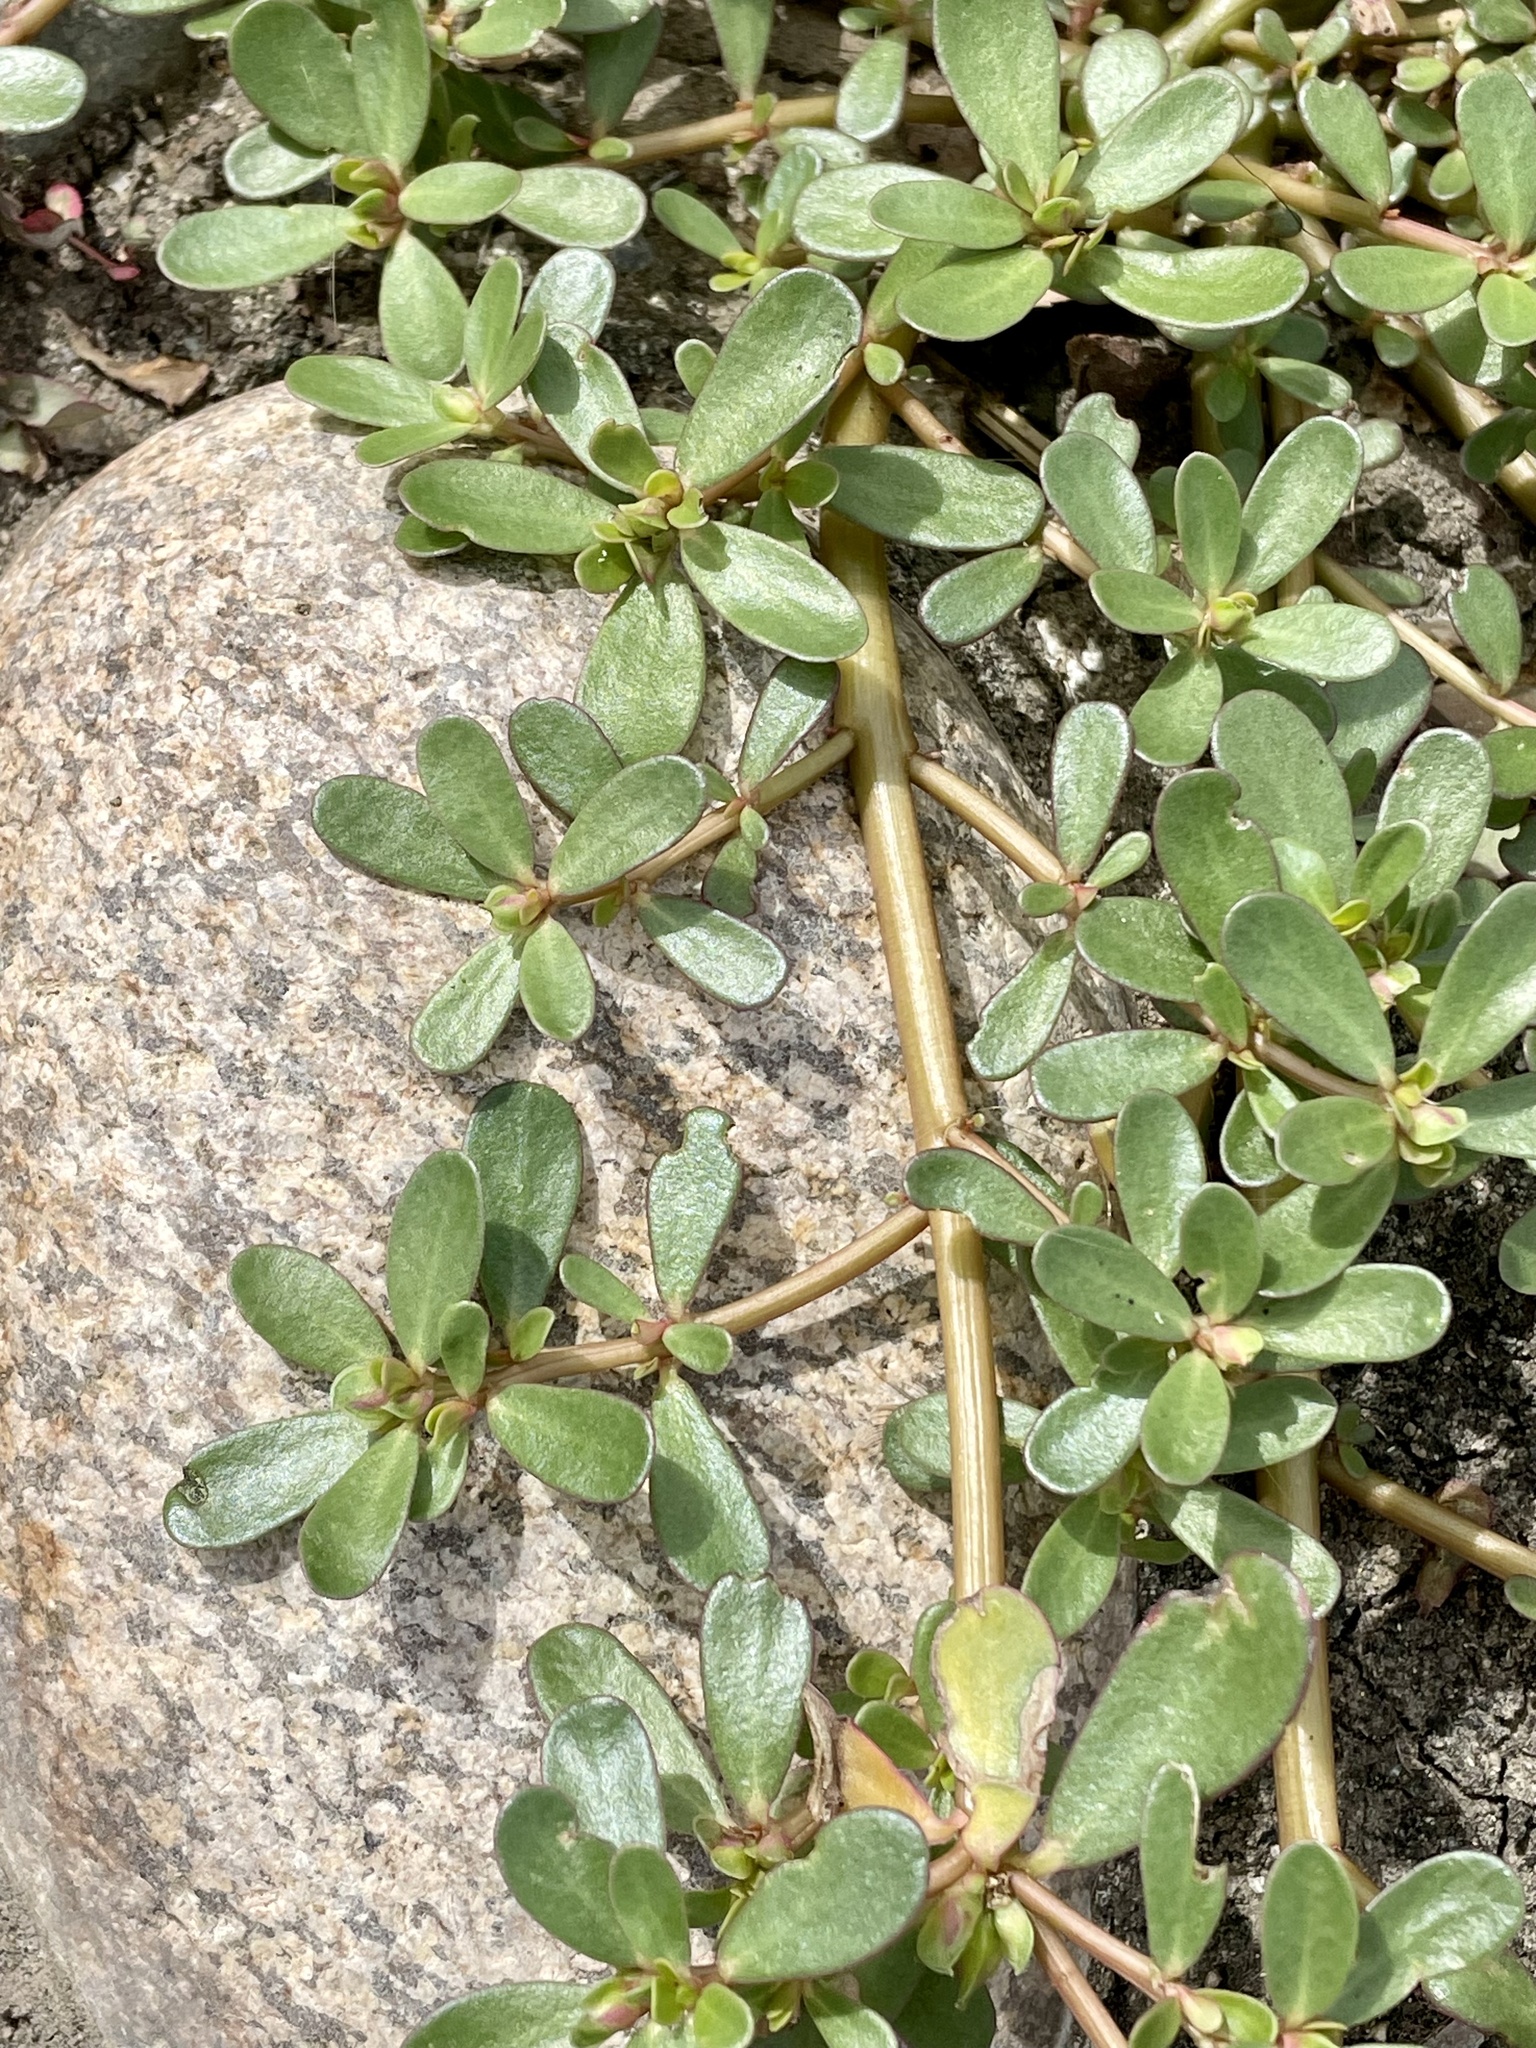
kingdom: Plantae
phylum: Tracheophyta
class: Magnoliopsida
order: Caryophyllales
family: Portulacaceae
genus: Portulaca
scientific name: Portulaca oleracea
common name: Common purslane
